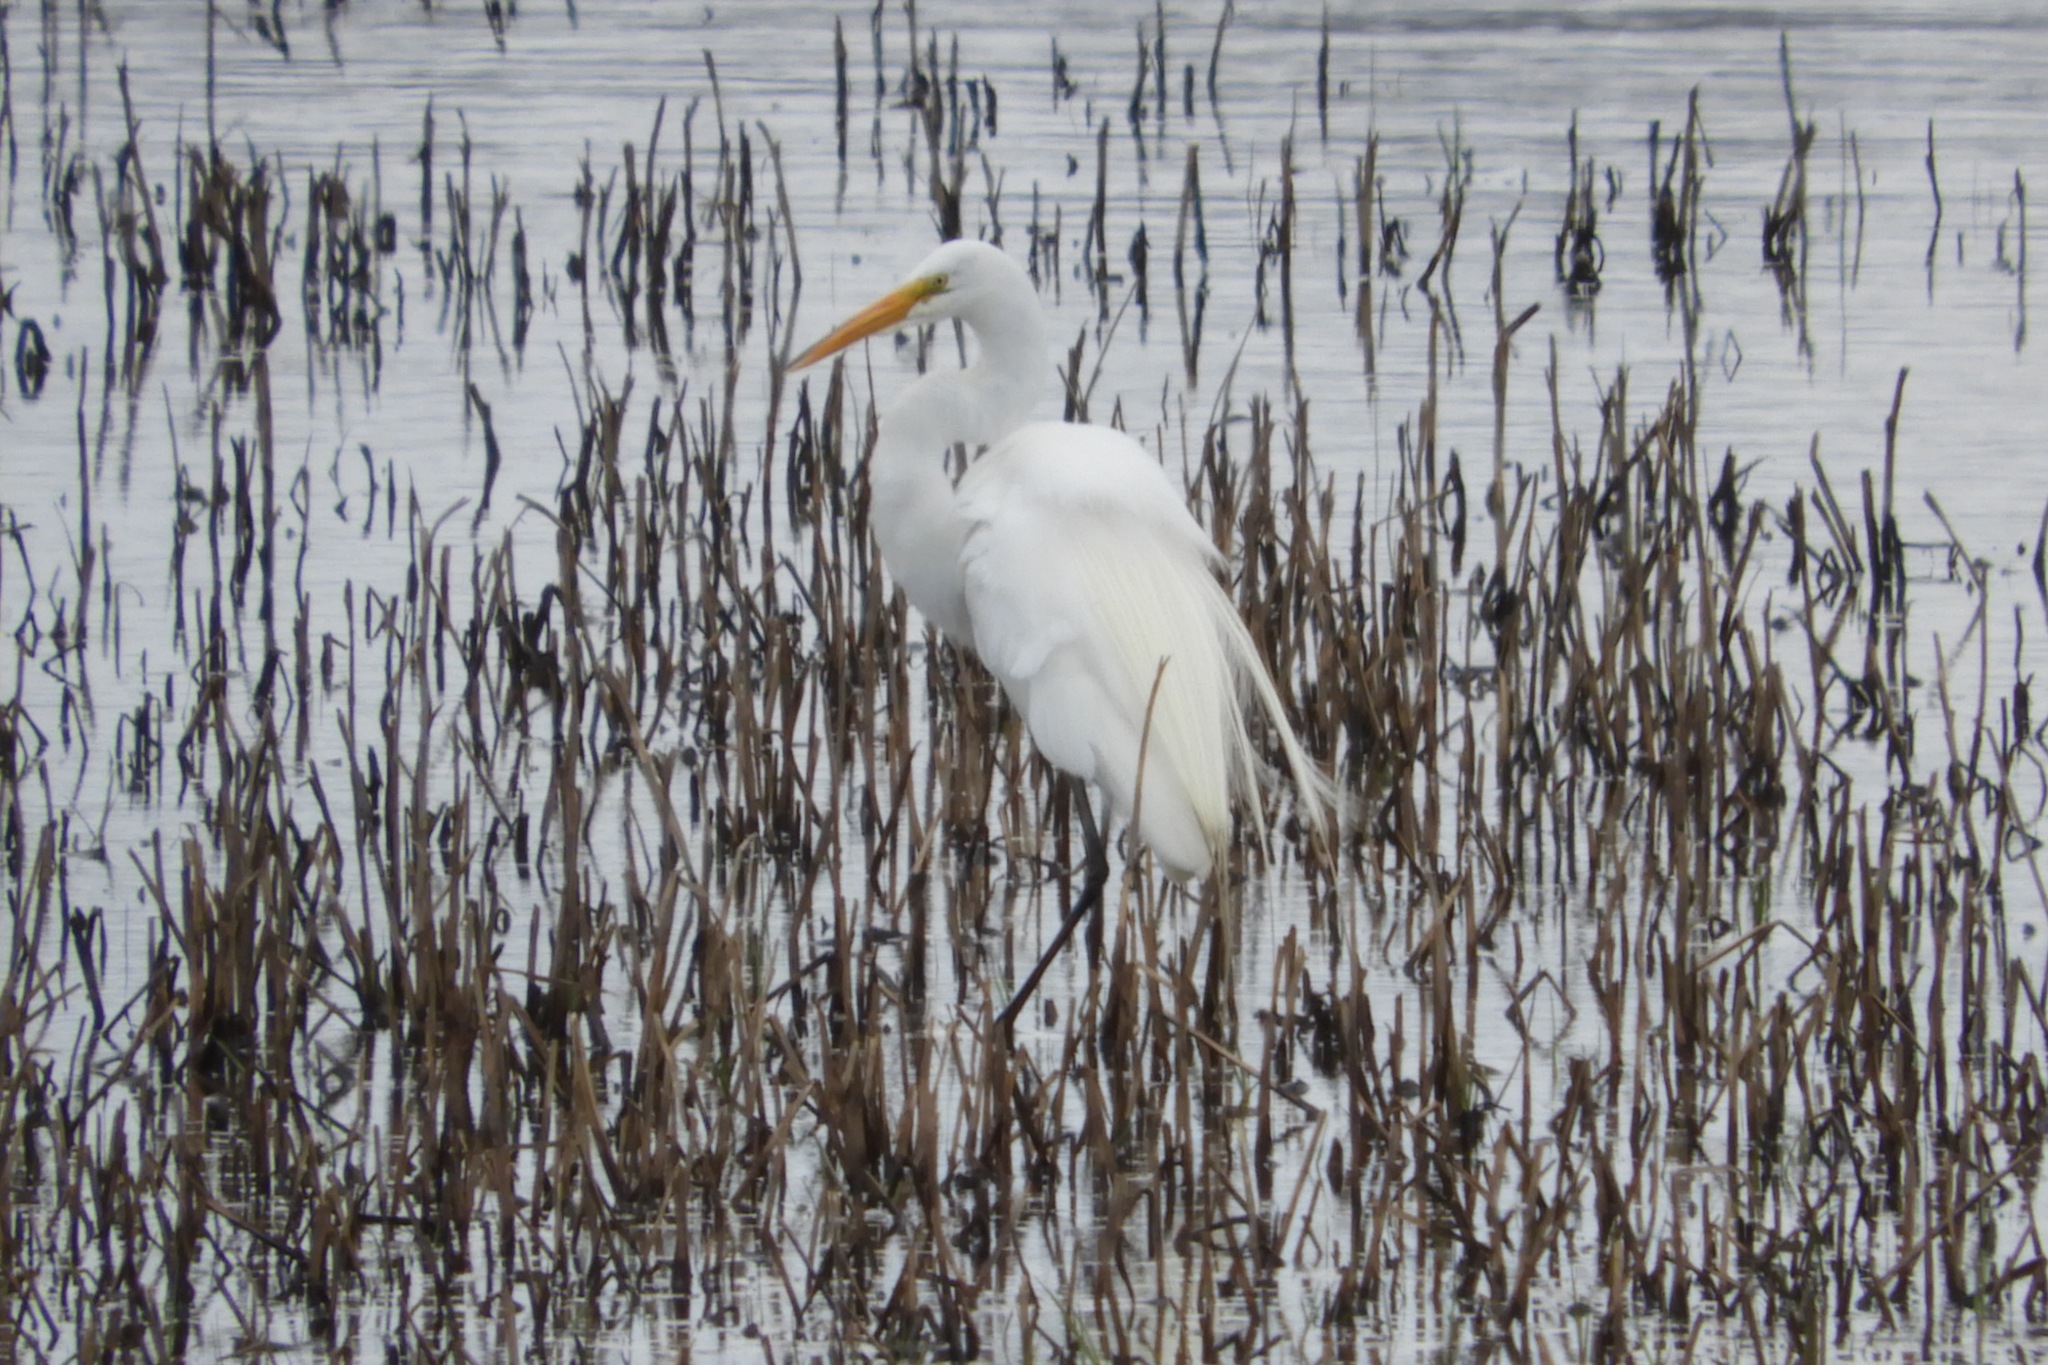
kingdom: Animalia
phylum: Chordata
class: Aves
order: Pelecaniformes
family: Ardeidae
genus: Ardea
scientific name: Ardea alba
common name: Great egret
